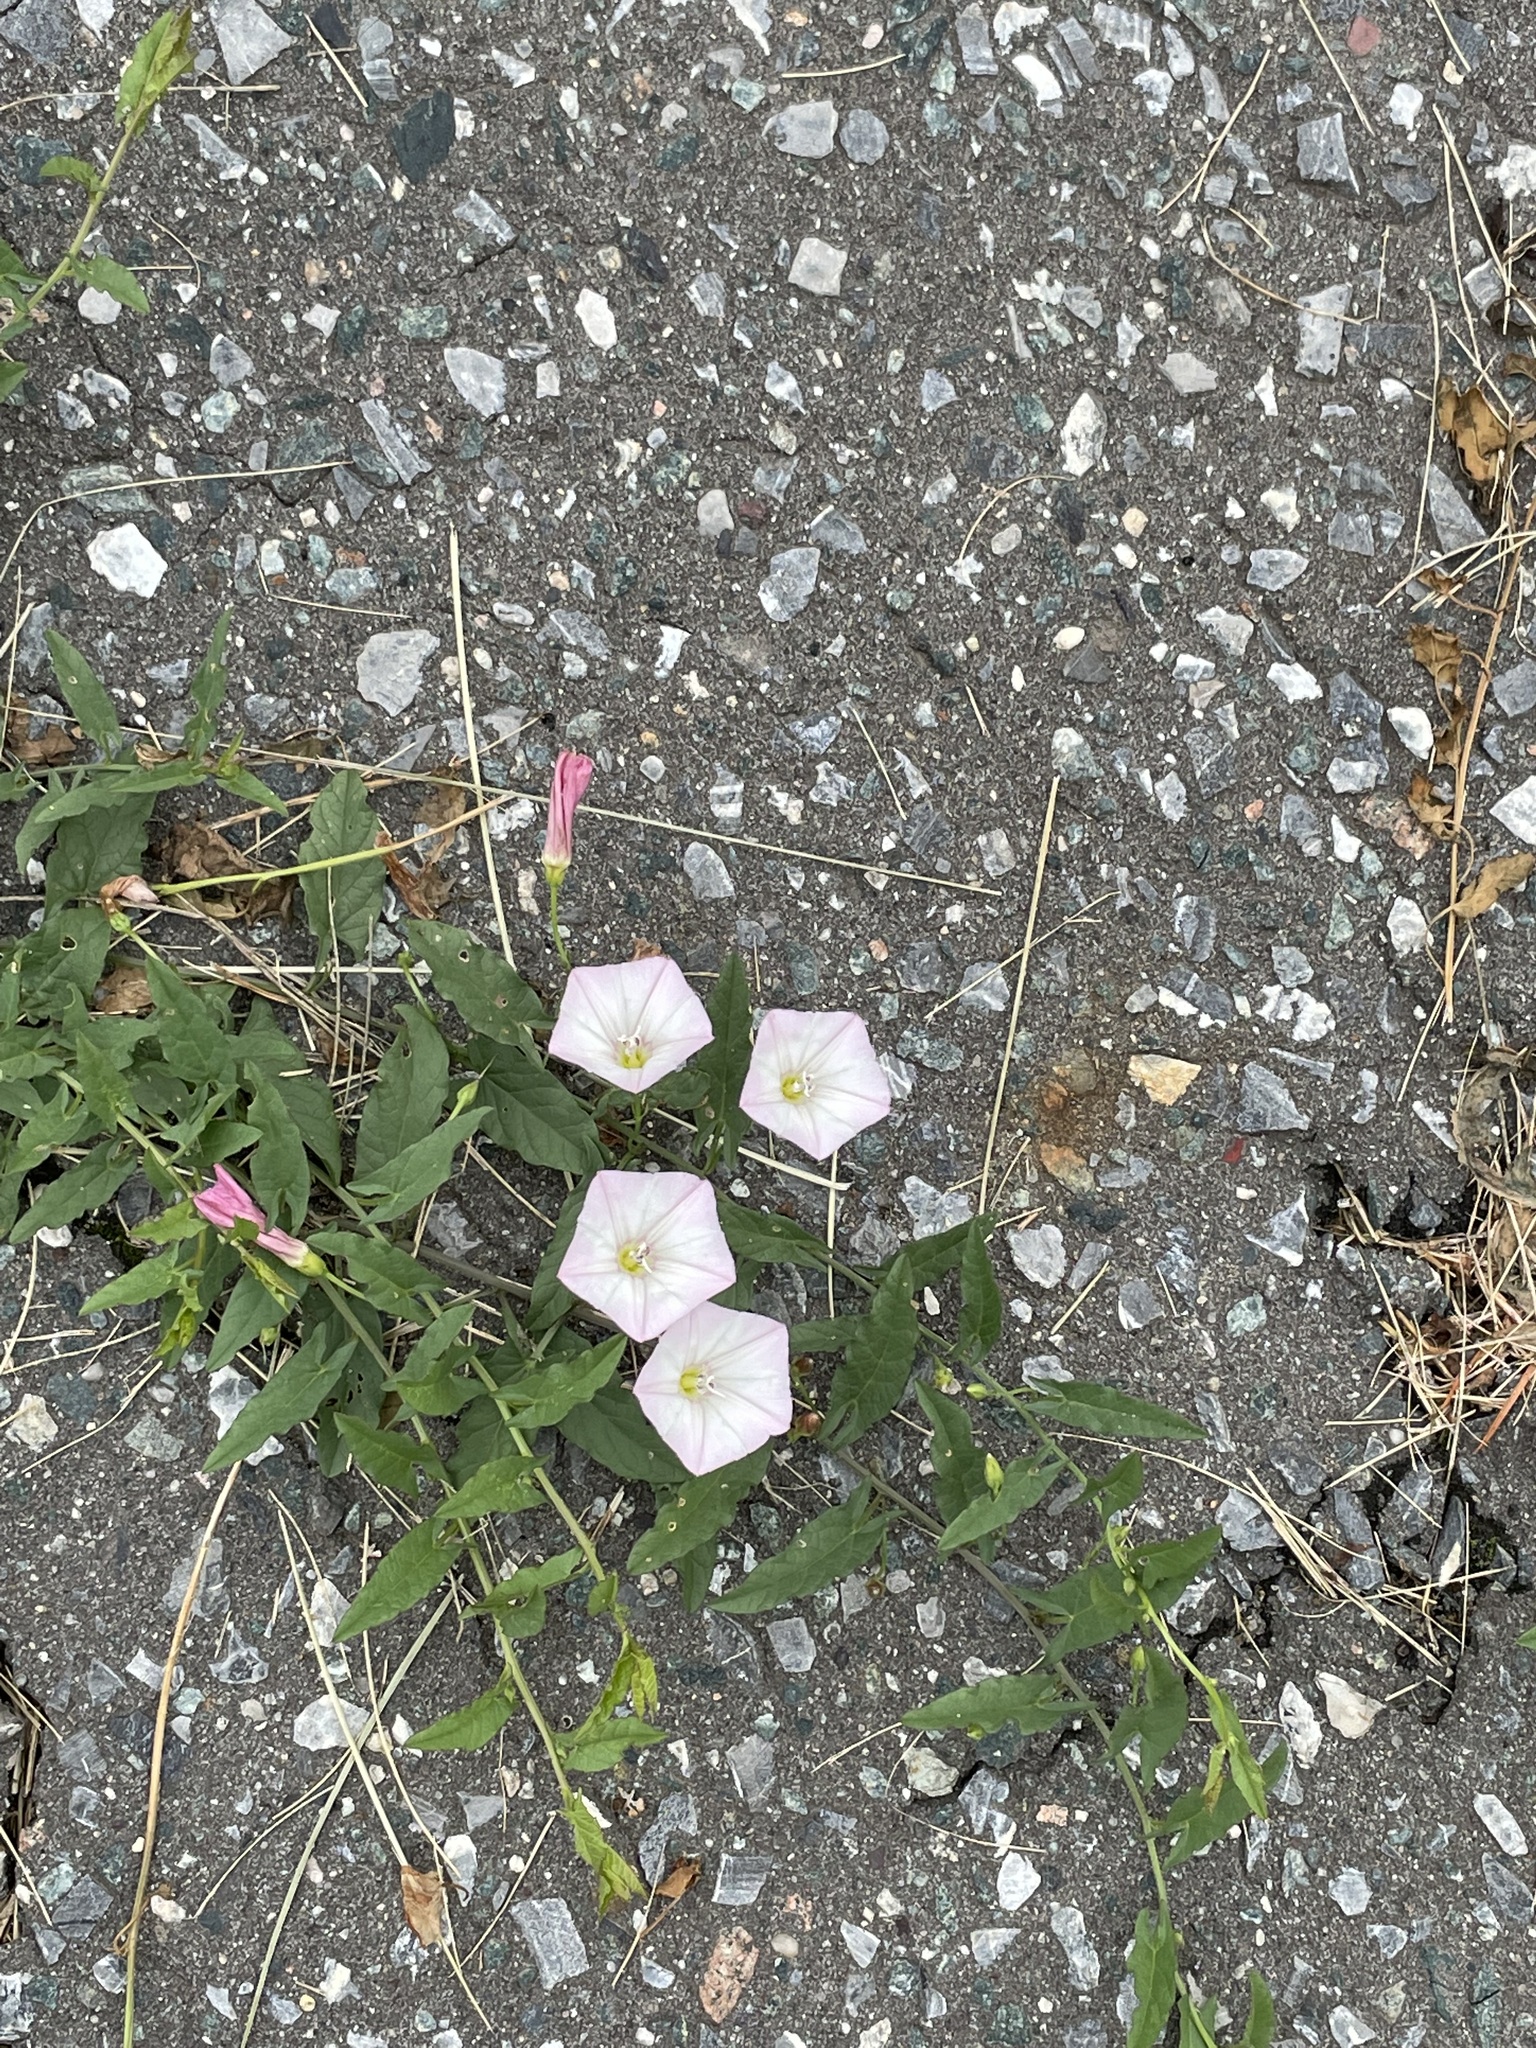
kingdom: Plantae
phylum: Tracheophyta
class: Magnoliopsida
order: Solanales
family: Convolvulaceae
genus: Convolvulus
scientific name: Convolvulus arvensis
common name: Field bindweed
